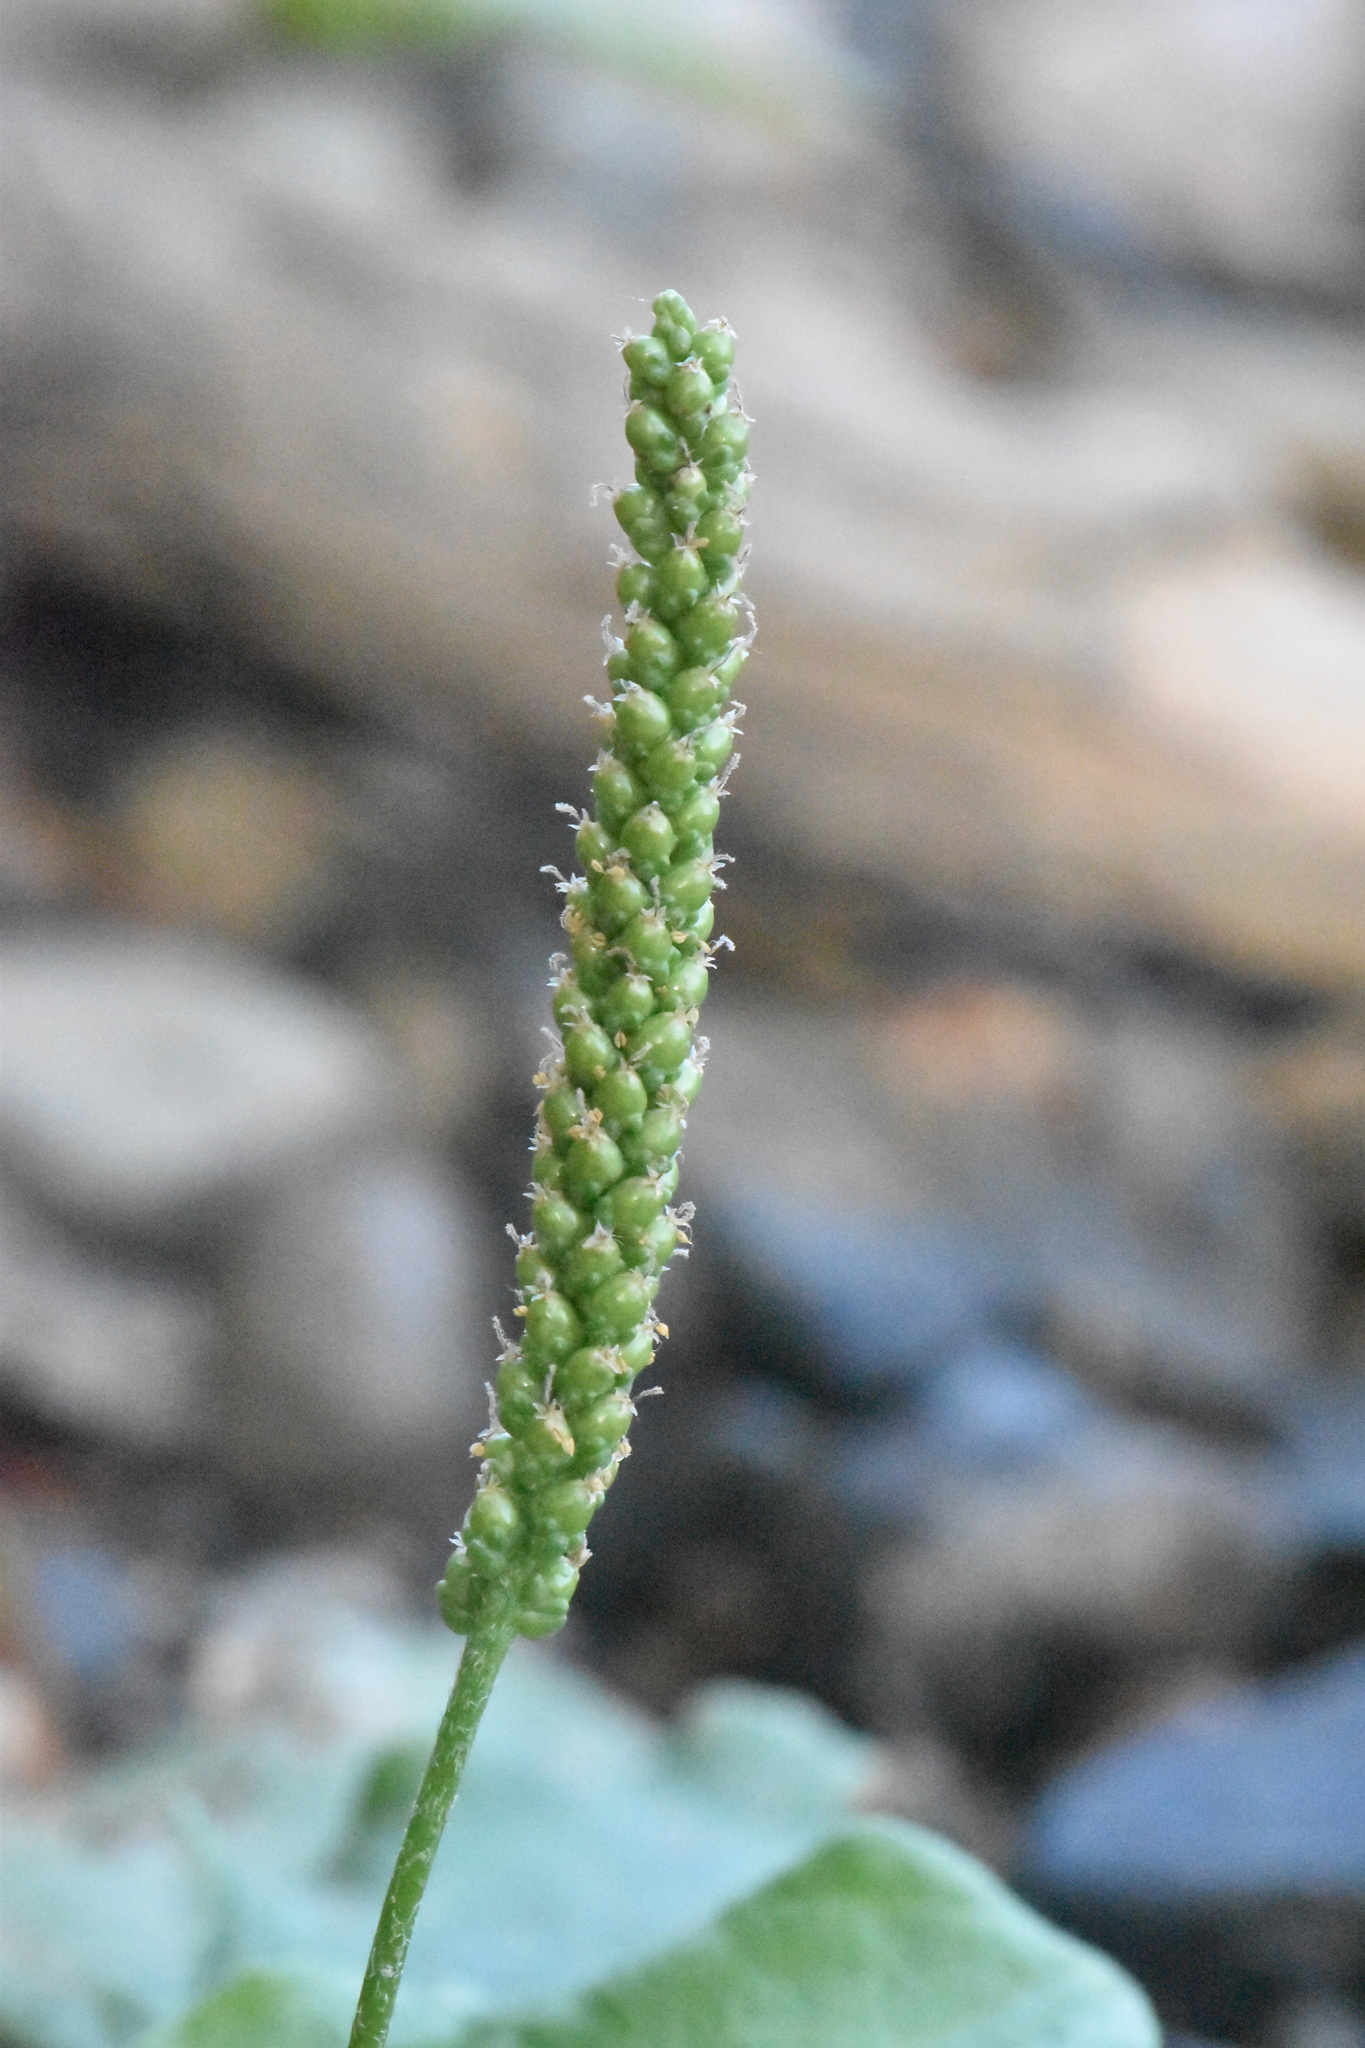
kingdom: Plantae
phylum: Tracheophyta
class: Magnoliopsida
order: Lamiales
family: Plantaginaceae
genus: Plantago
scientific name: Plantago major
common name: Common plantain
